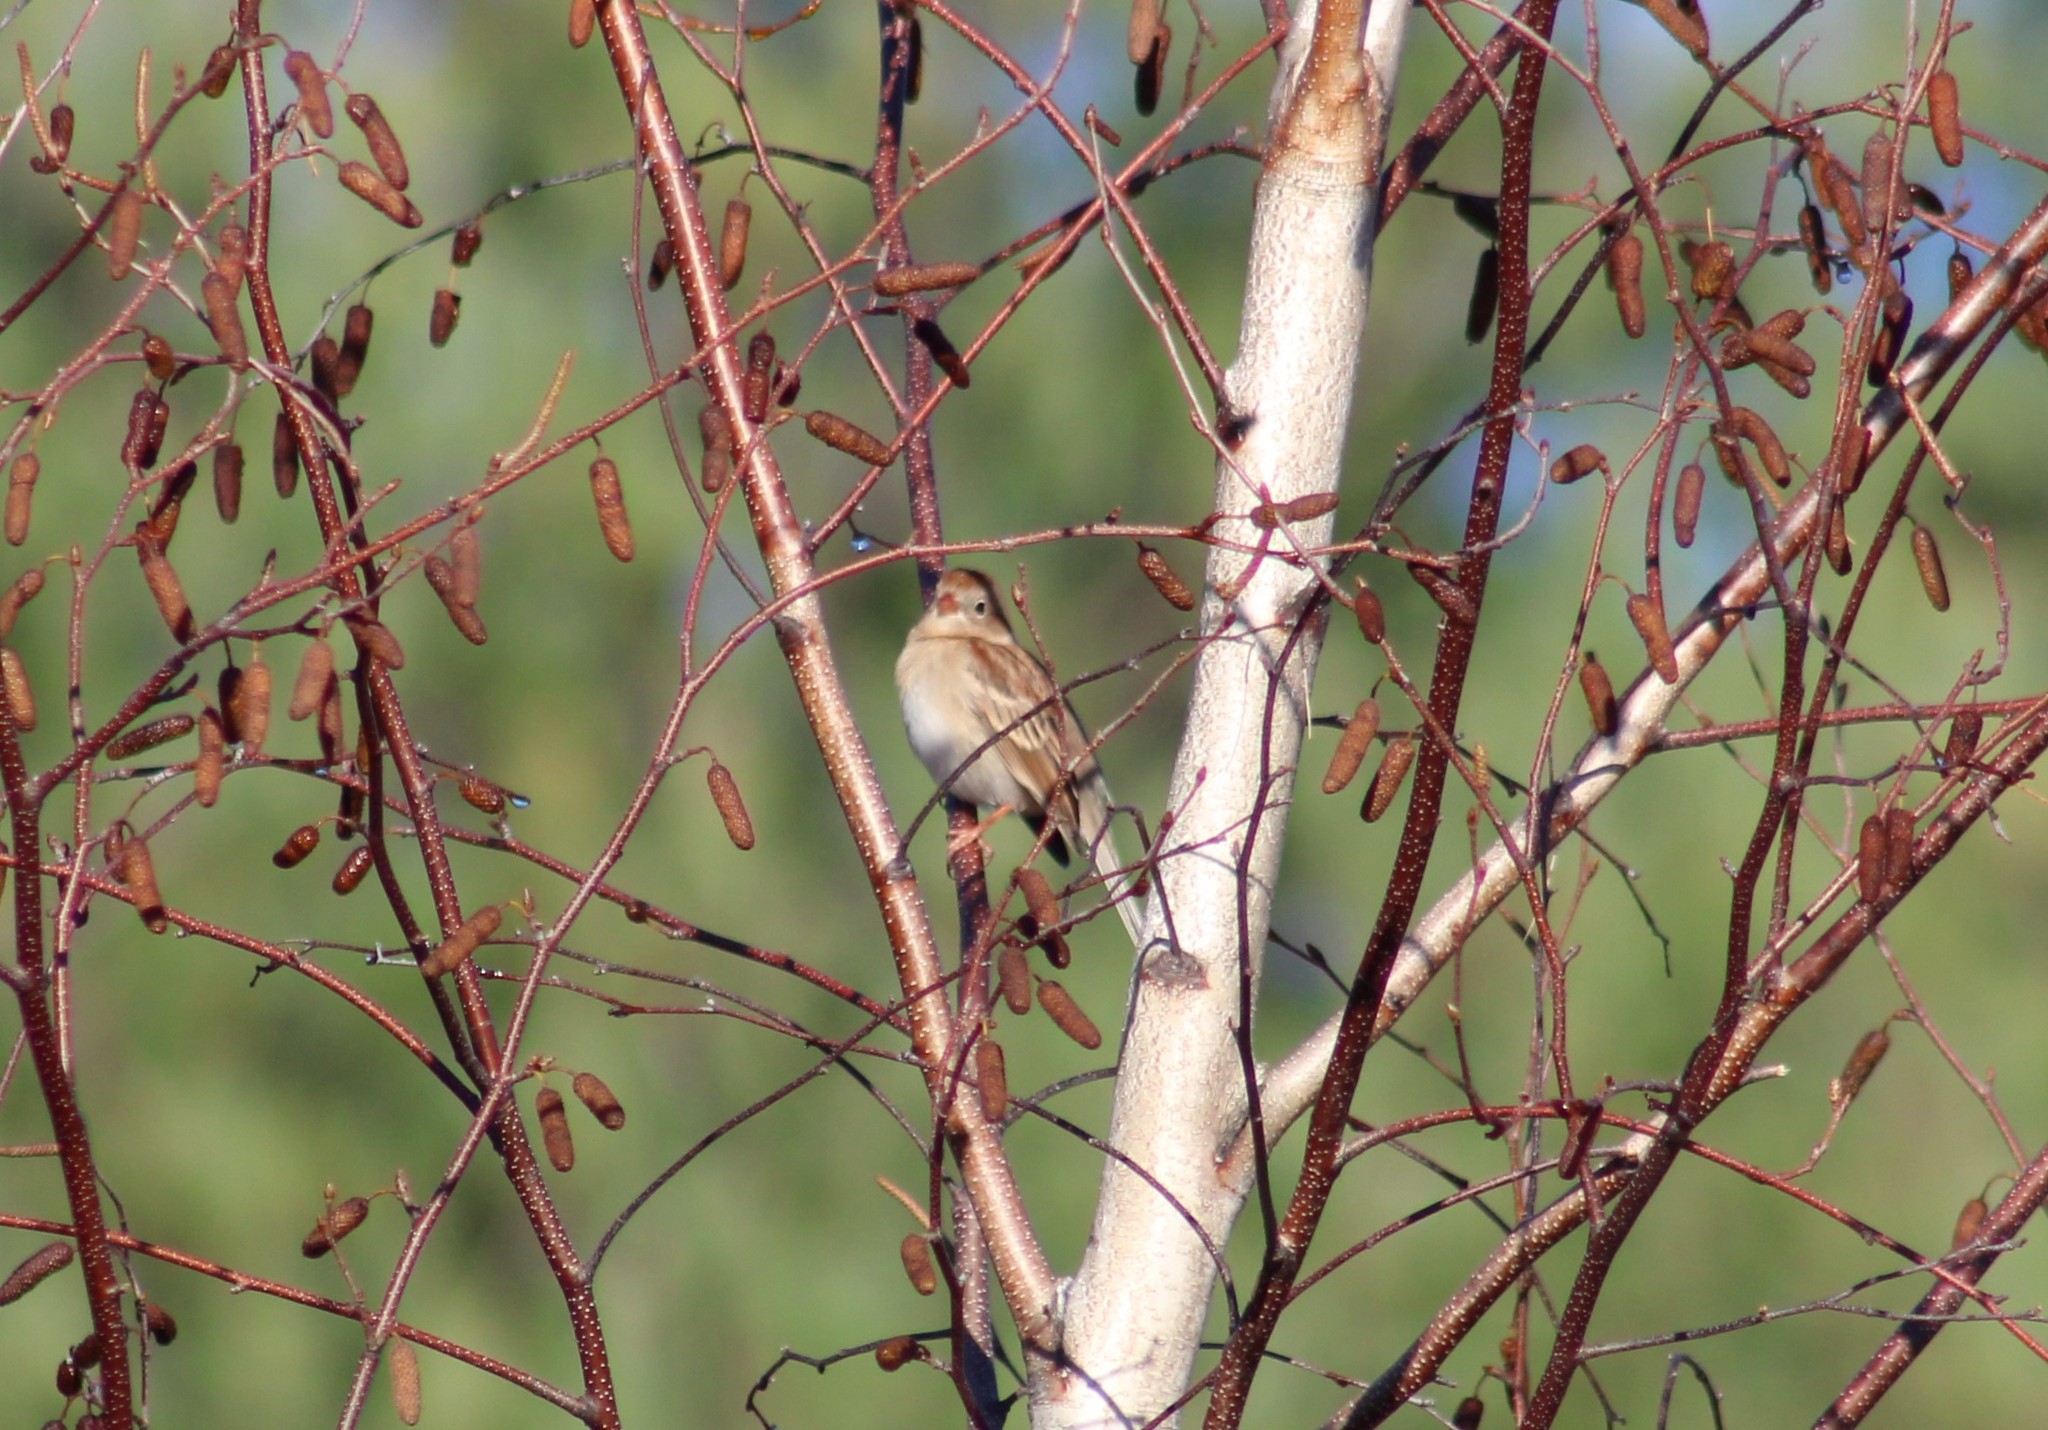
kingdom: Animalia
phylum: Chordata
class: Aves
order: Passeriformes
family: Passerellidae
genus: Spizella
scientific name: Spizella pusilla
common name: Field sparrow
